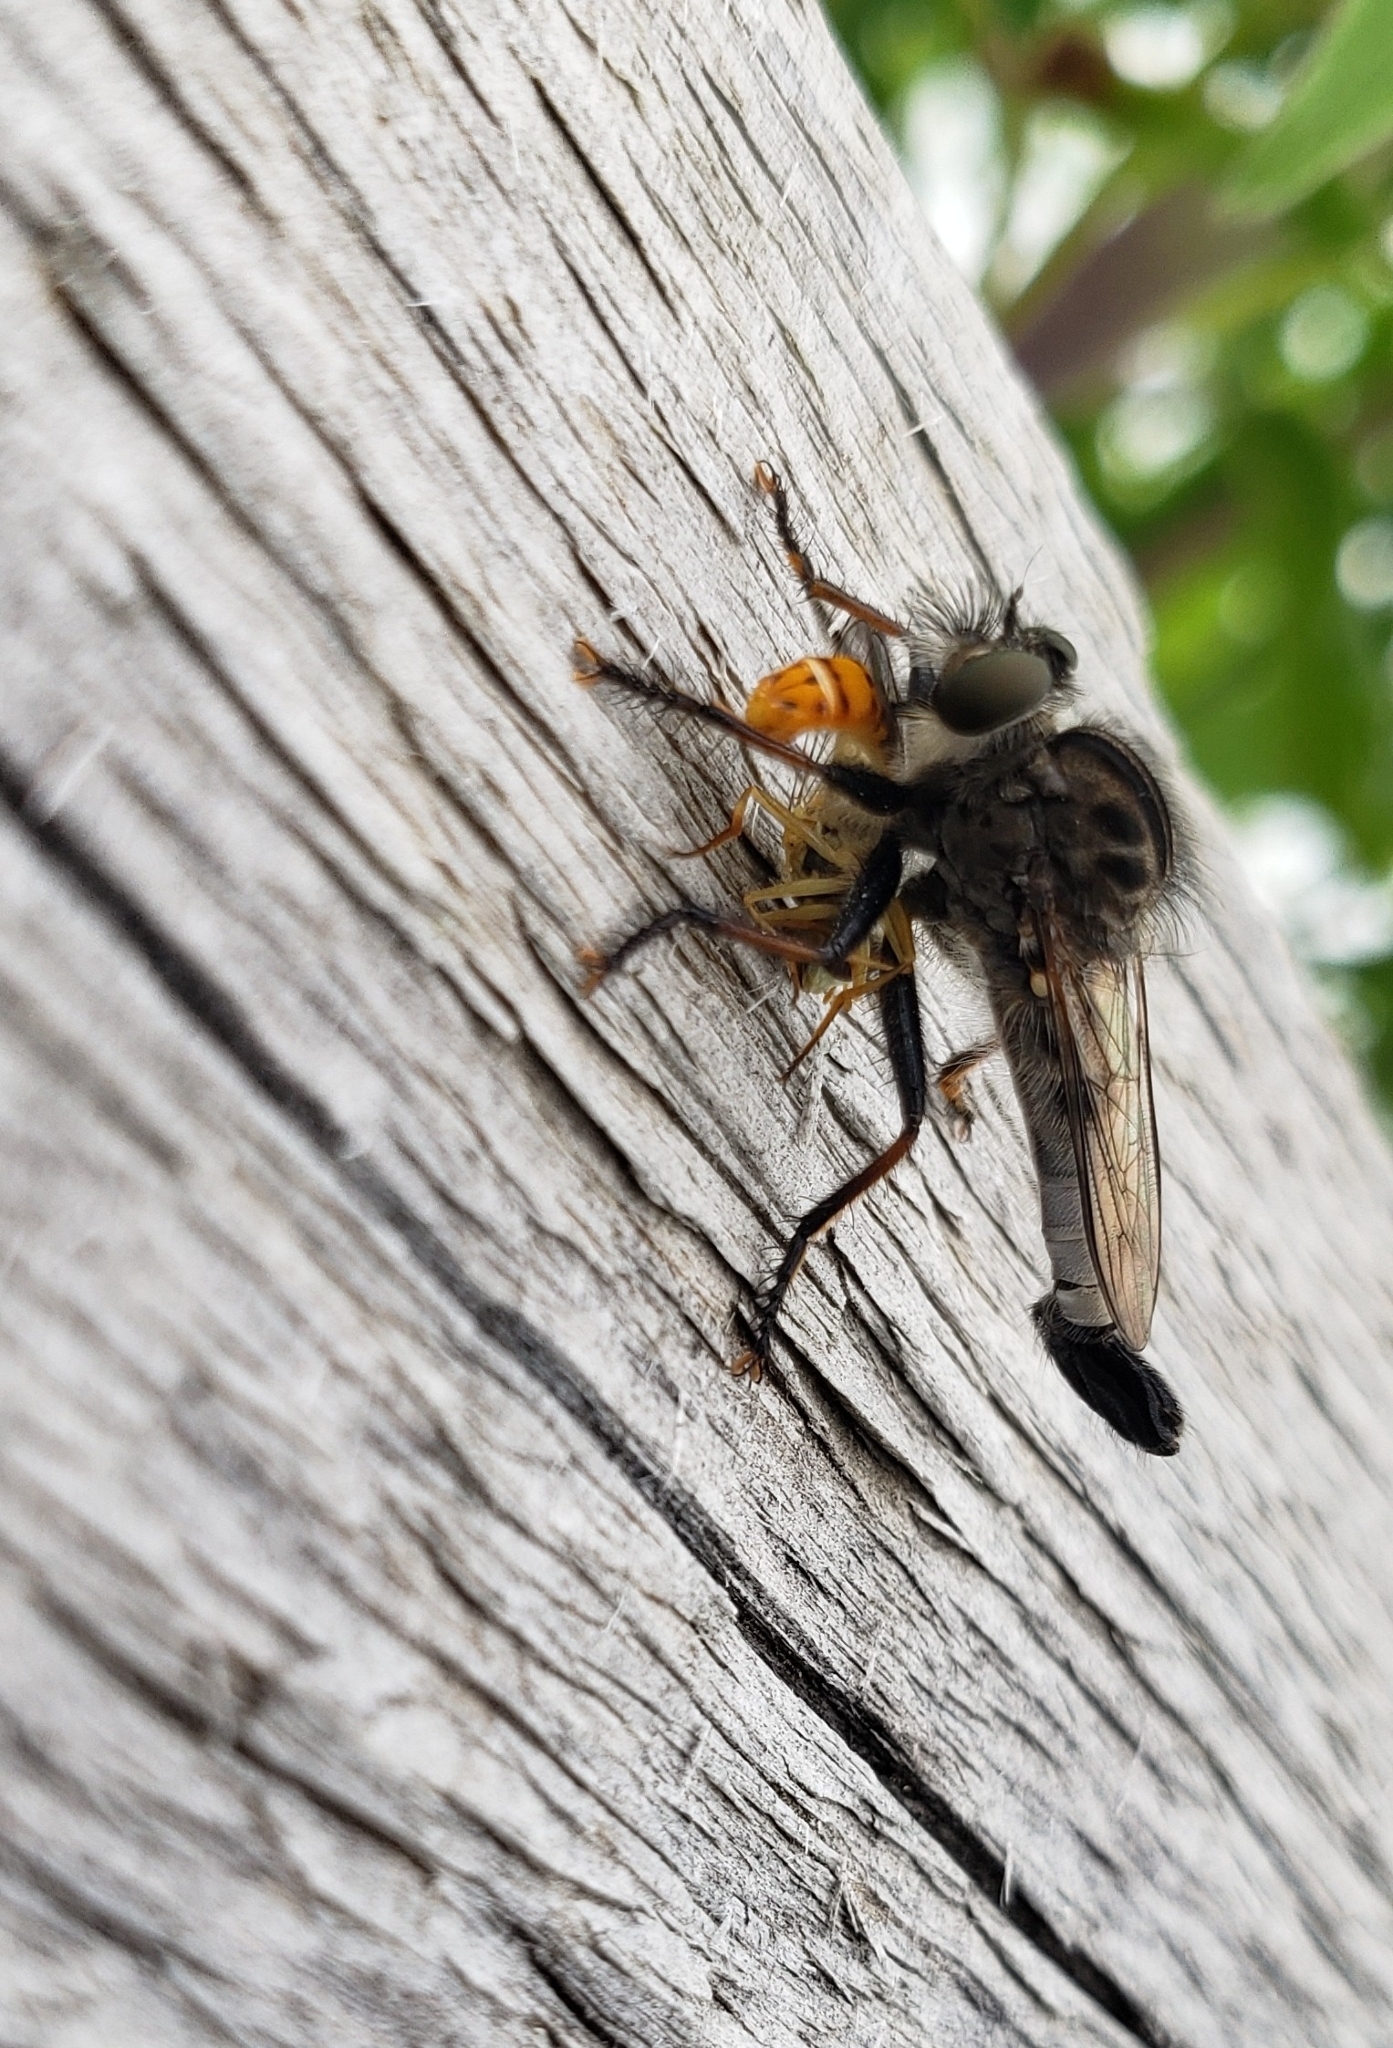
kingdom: Animalia
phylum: Arthropoda
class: Insecta
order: Diptera
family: Asilidae
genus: Efferia
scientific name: Efferia aestuans
